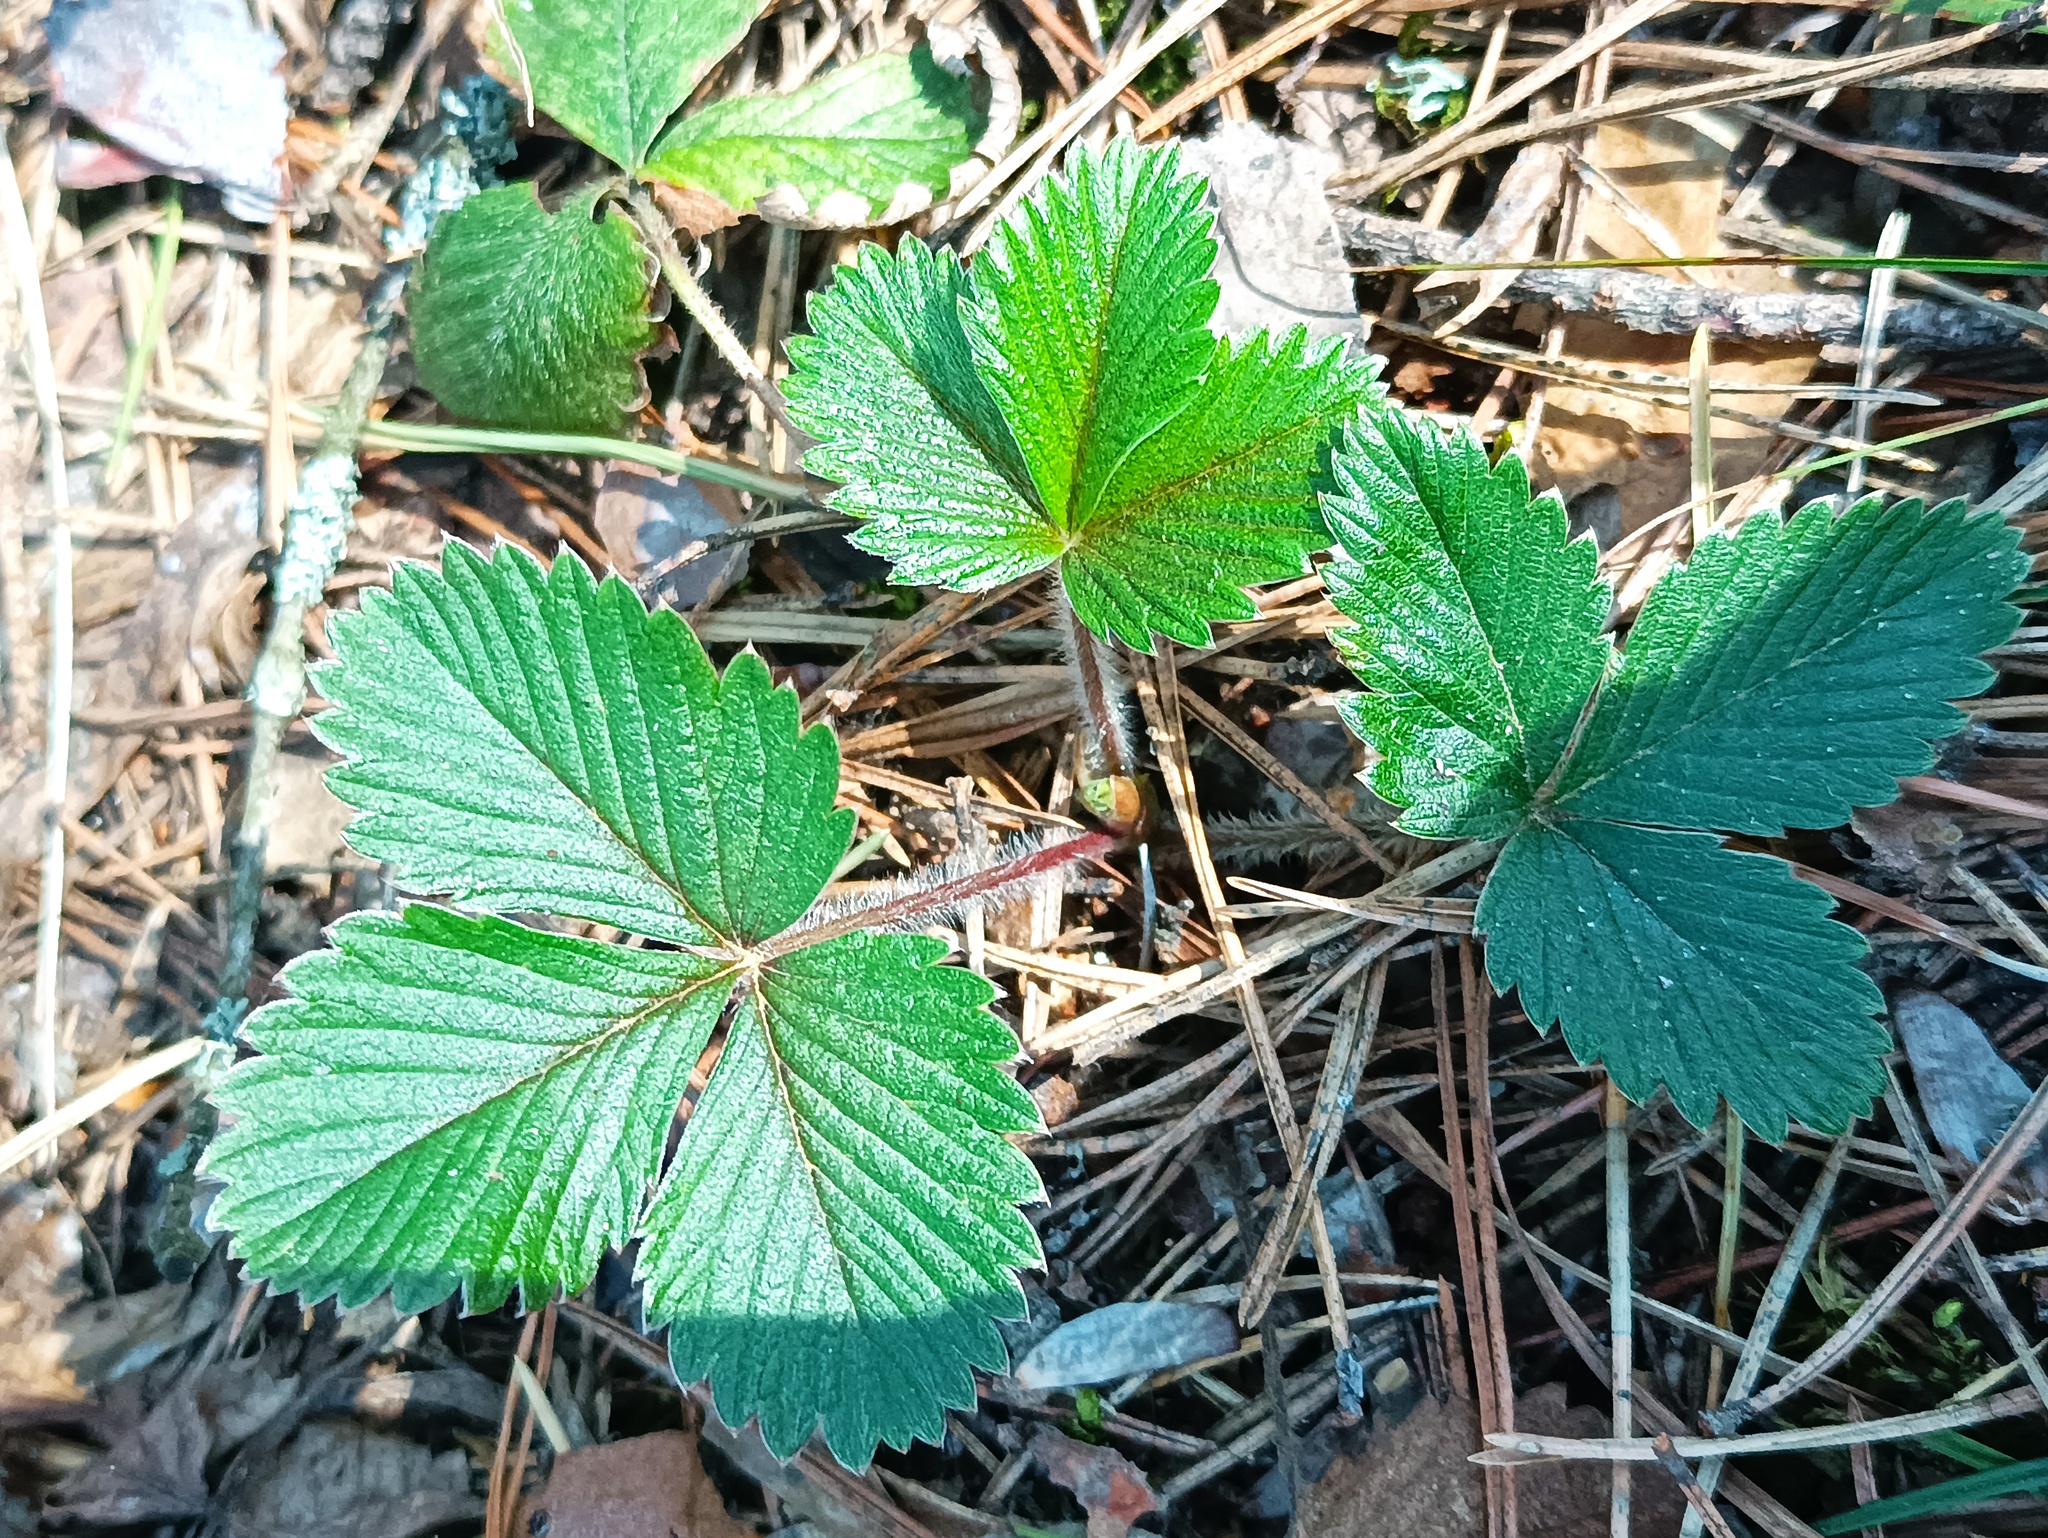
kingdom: Plantae
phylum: Tracheophyta
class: Magnoliopsida
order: Rosales
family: Rosaceae
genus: Fragaria
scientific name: Fragaria vesca
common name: Wild strawberry
